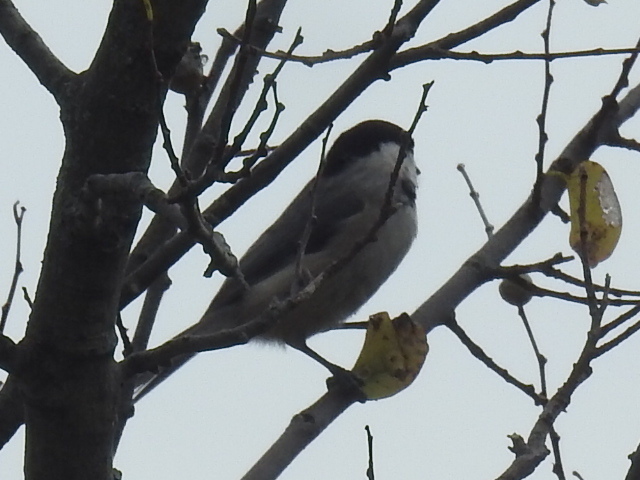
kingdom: Animalia
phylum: Chordata
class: Aves
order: Passeriformes
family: Paridae
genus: Poecile
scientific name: Poecile carolinensis
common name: Carolina chickadee
